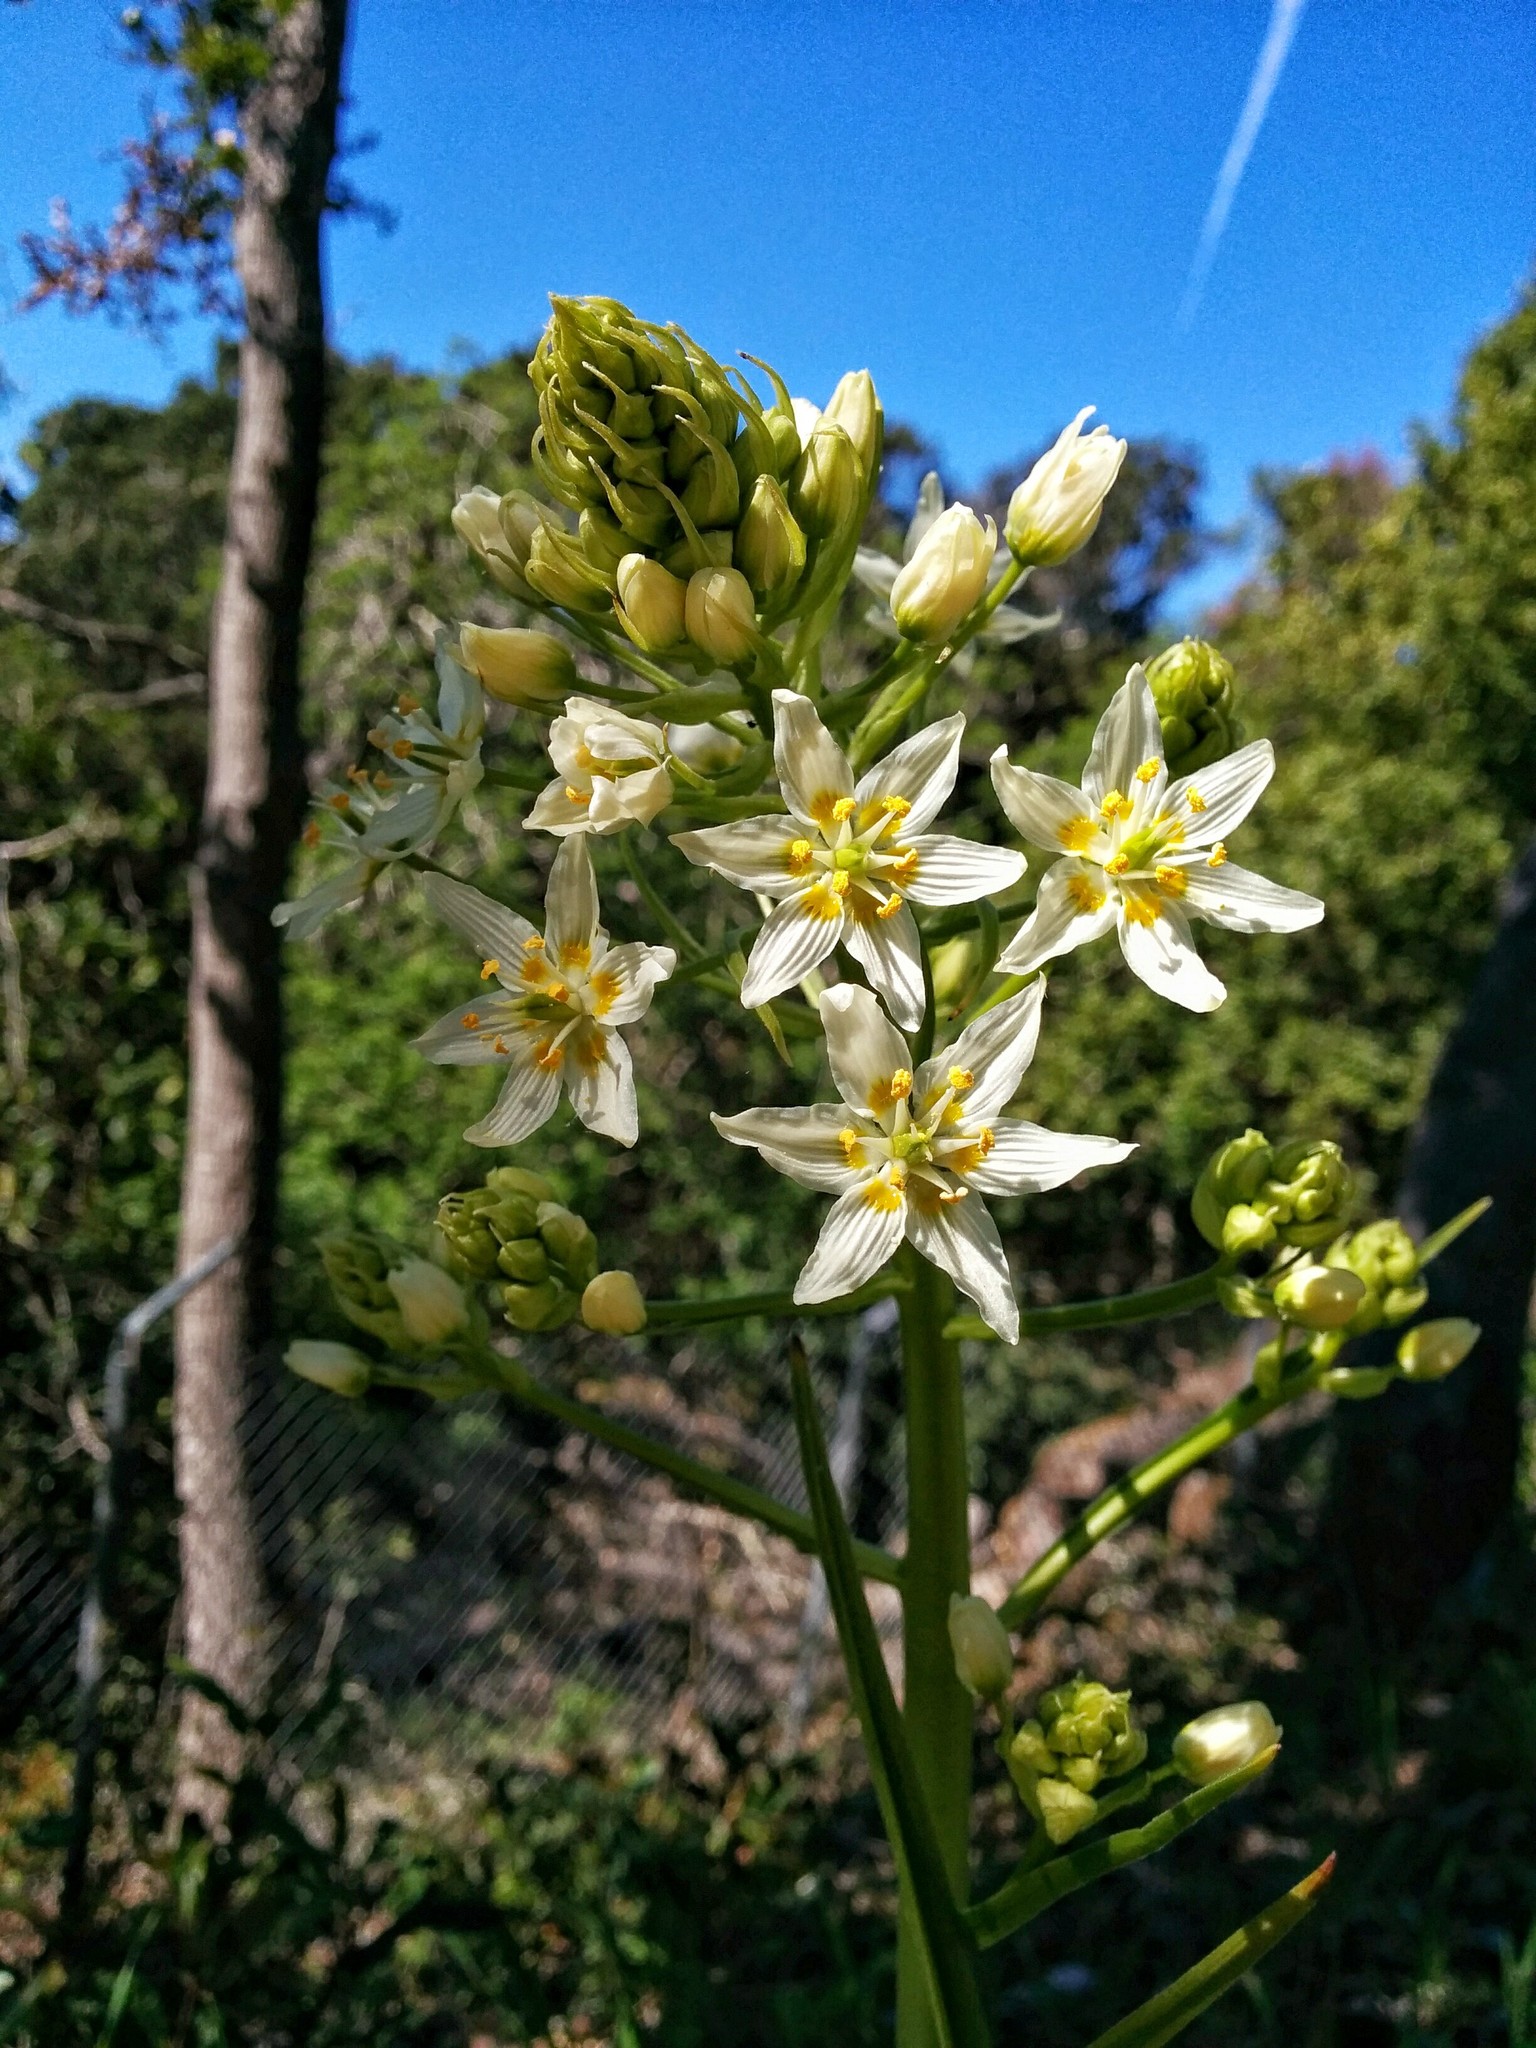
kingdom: Plantae
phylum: Tracheophyta
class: Liliopsida
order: Liliales
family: Melanthiaceae
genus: Toxicoscordion
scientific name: Toxicoscordion fremontii
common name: Fremont's death camas
